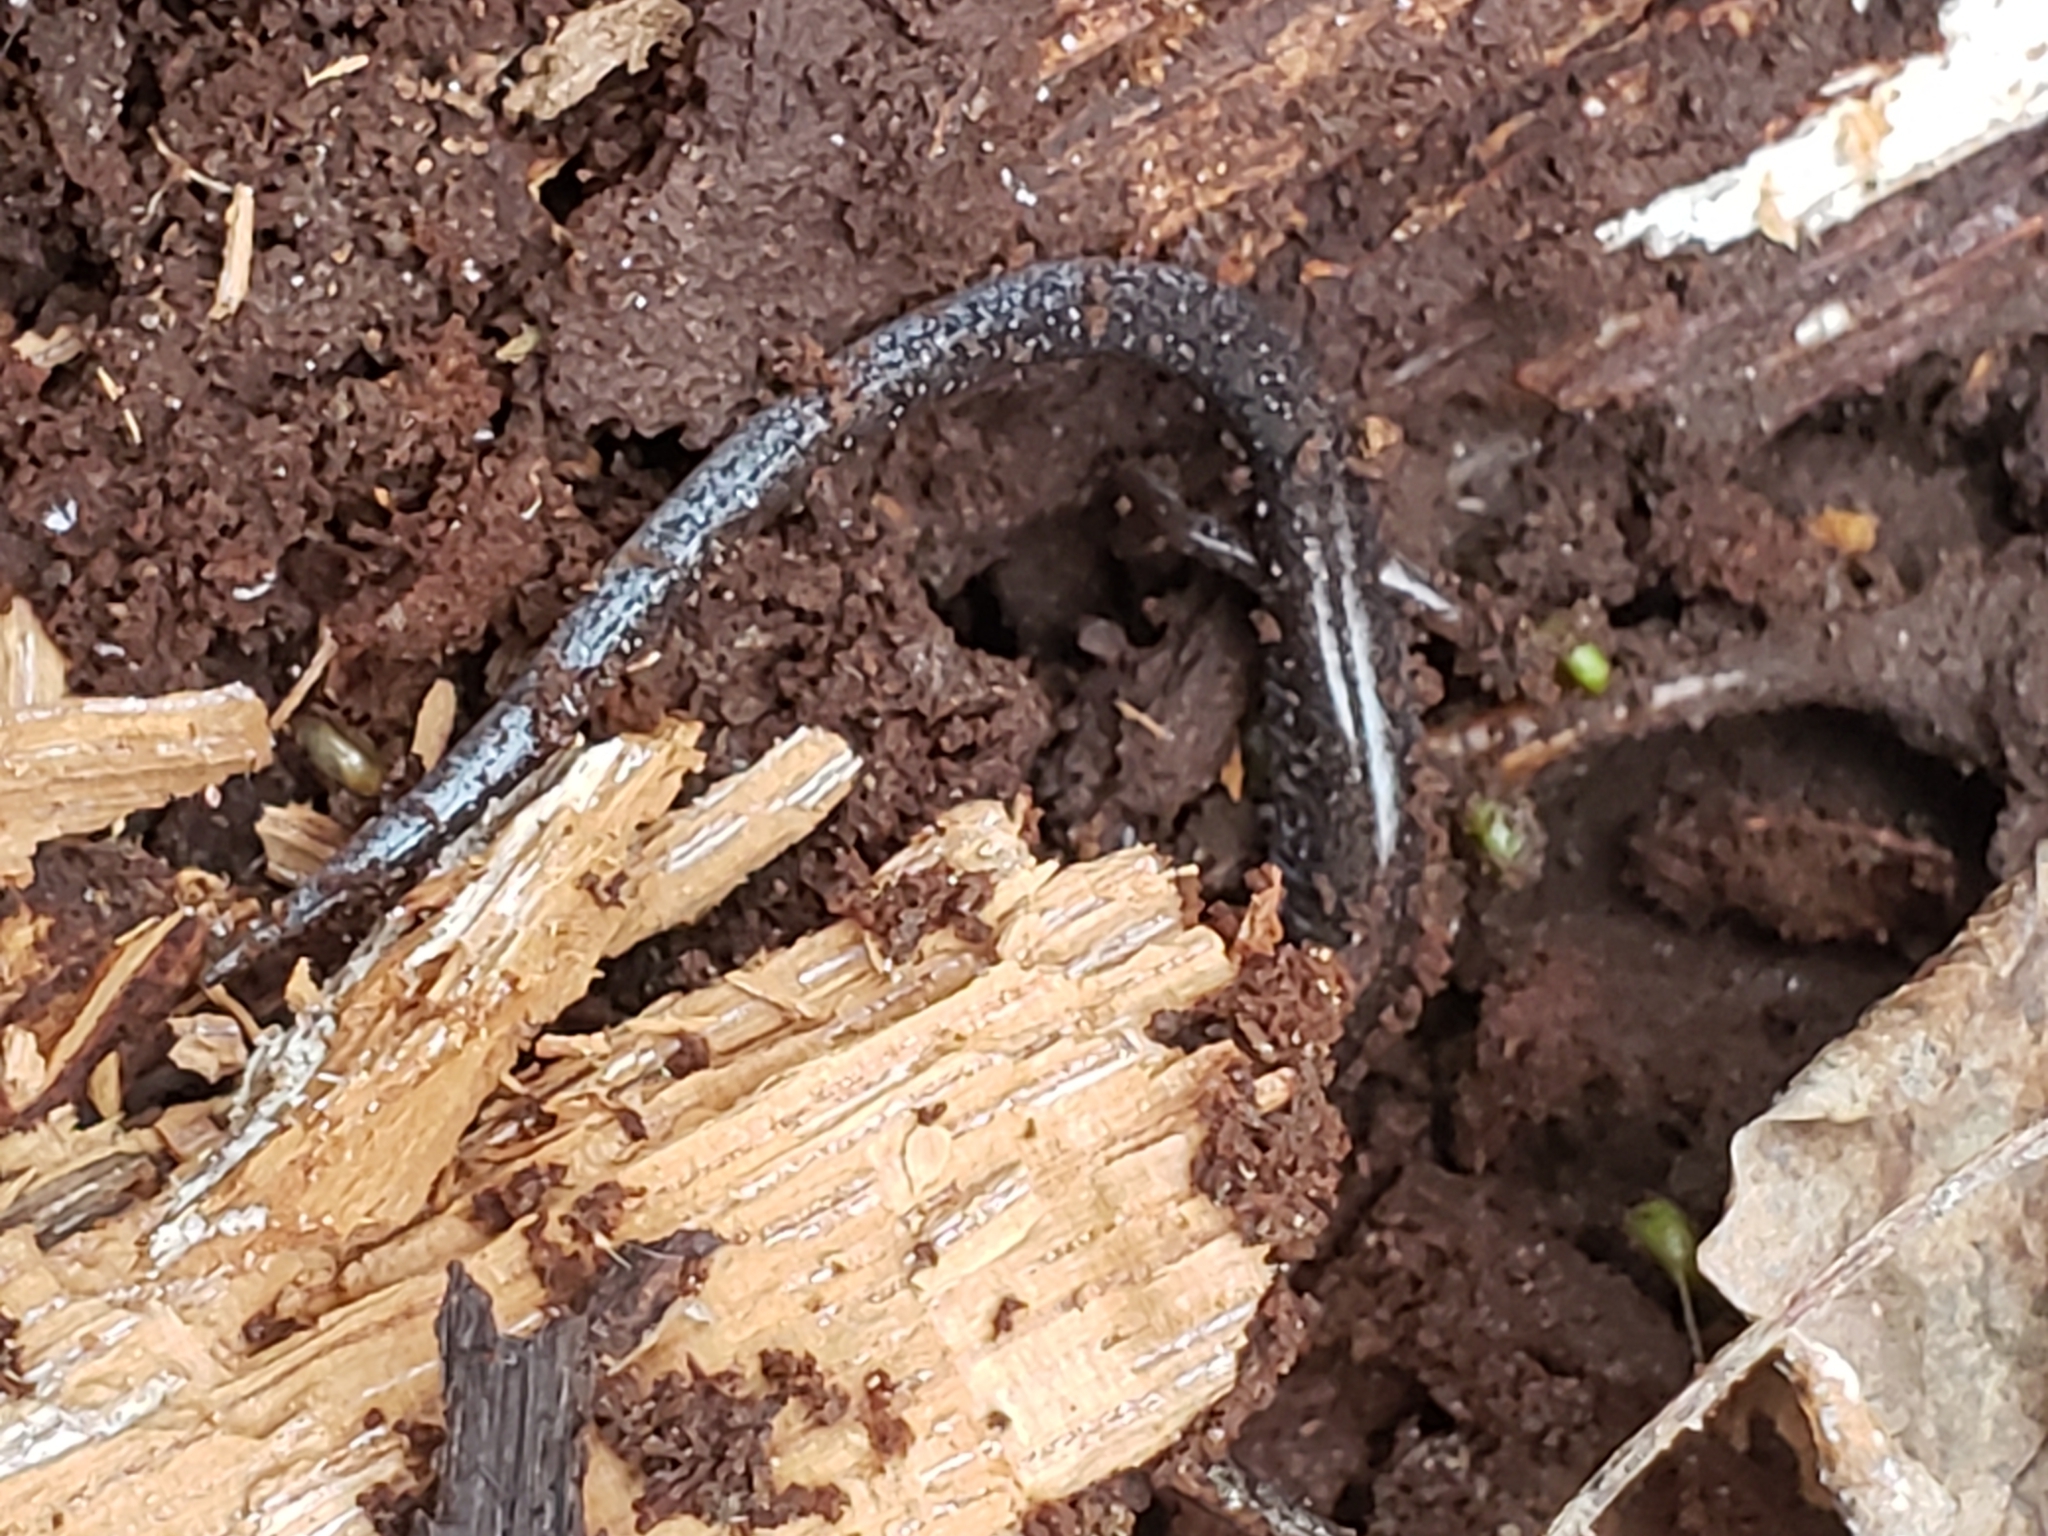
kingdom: Animalia
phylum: Chordata
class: Amphibia
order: Caudata
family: Plethodontidae
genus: Plethodon
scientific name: Plethodon cinereus
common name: Redback salamander
